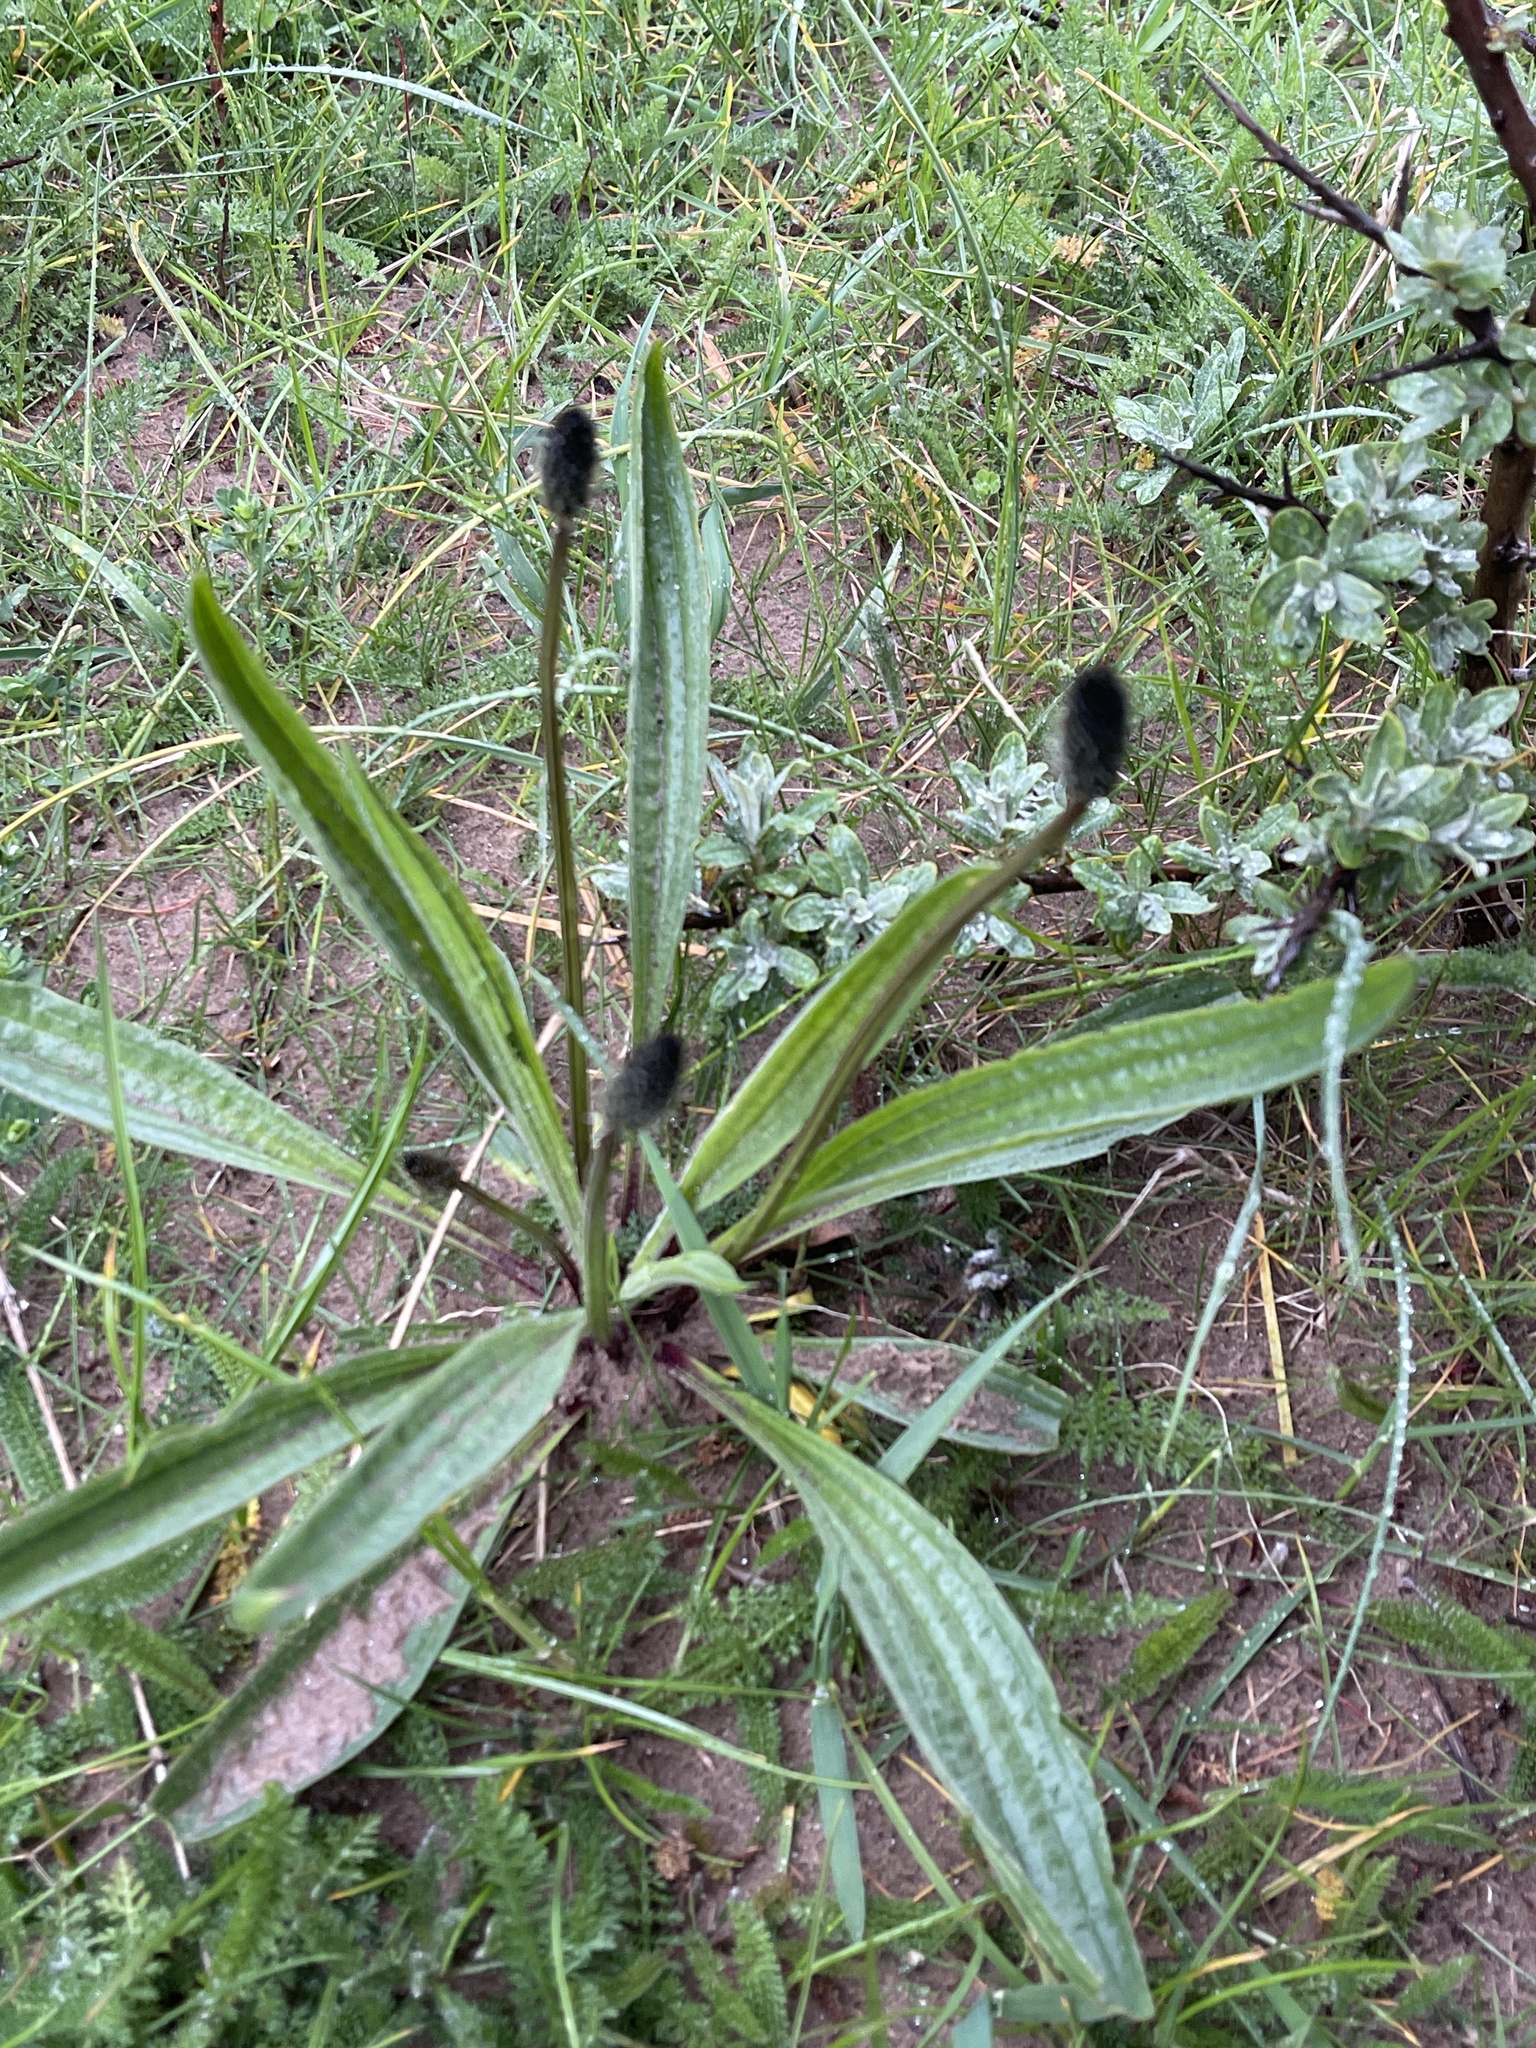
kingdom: Plantae
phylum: Tracheophyta
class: Magnoliopsida
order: Lamiales
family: Plantaginaceae
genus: Plantago
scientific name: Plantago lanceolata
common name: Ribwort plantain
